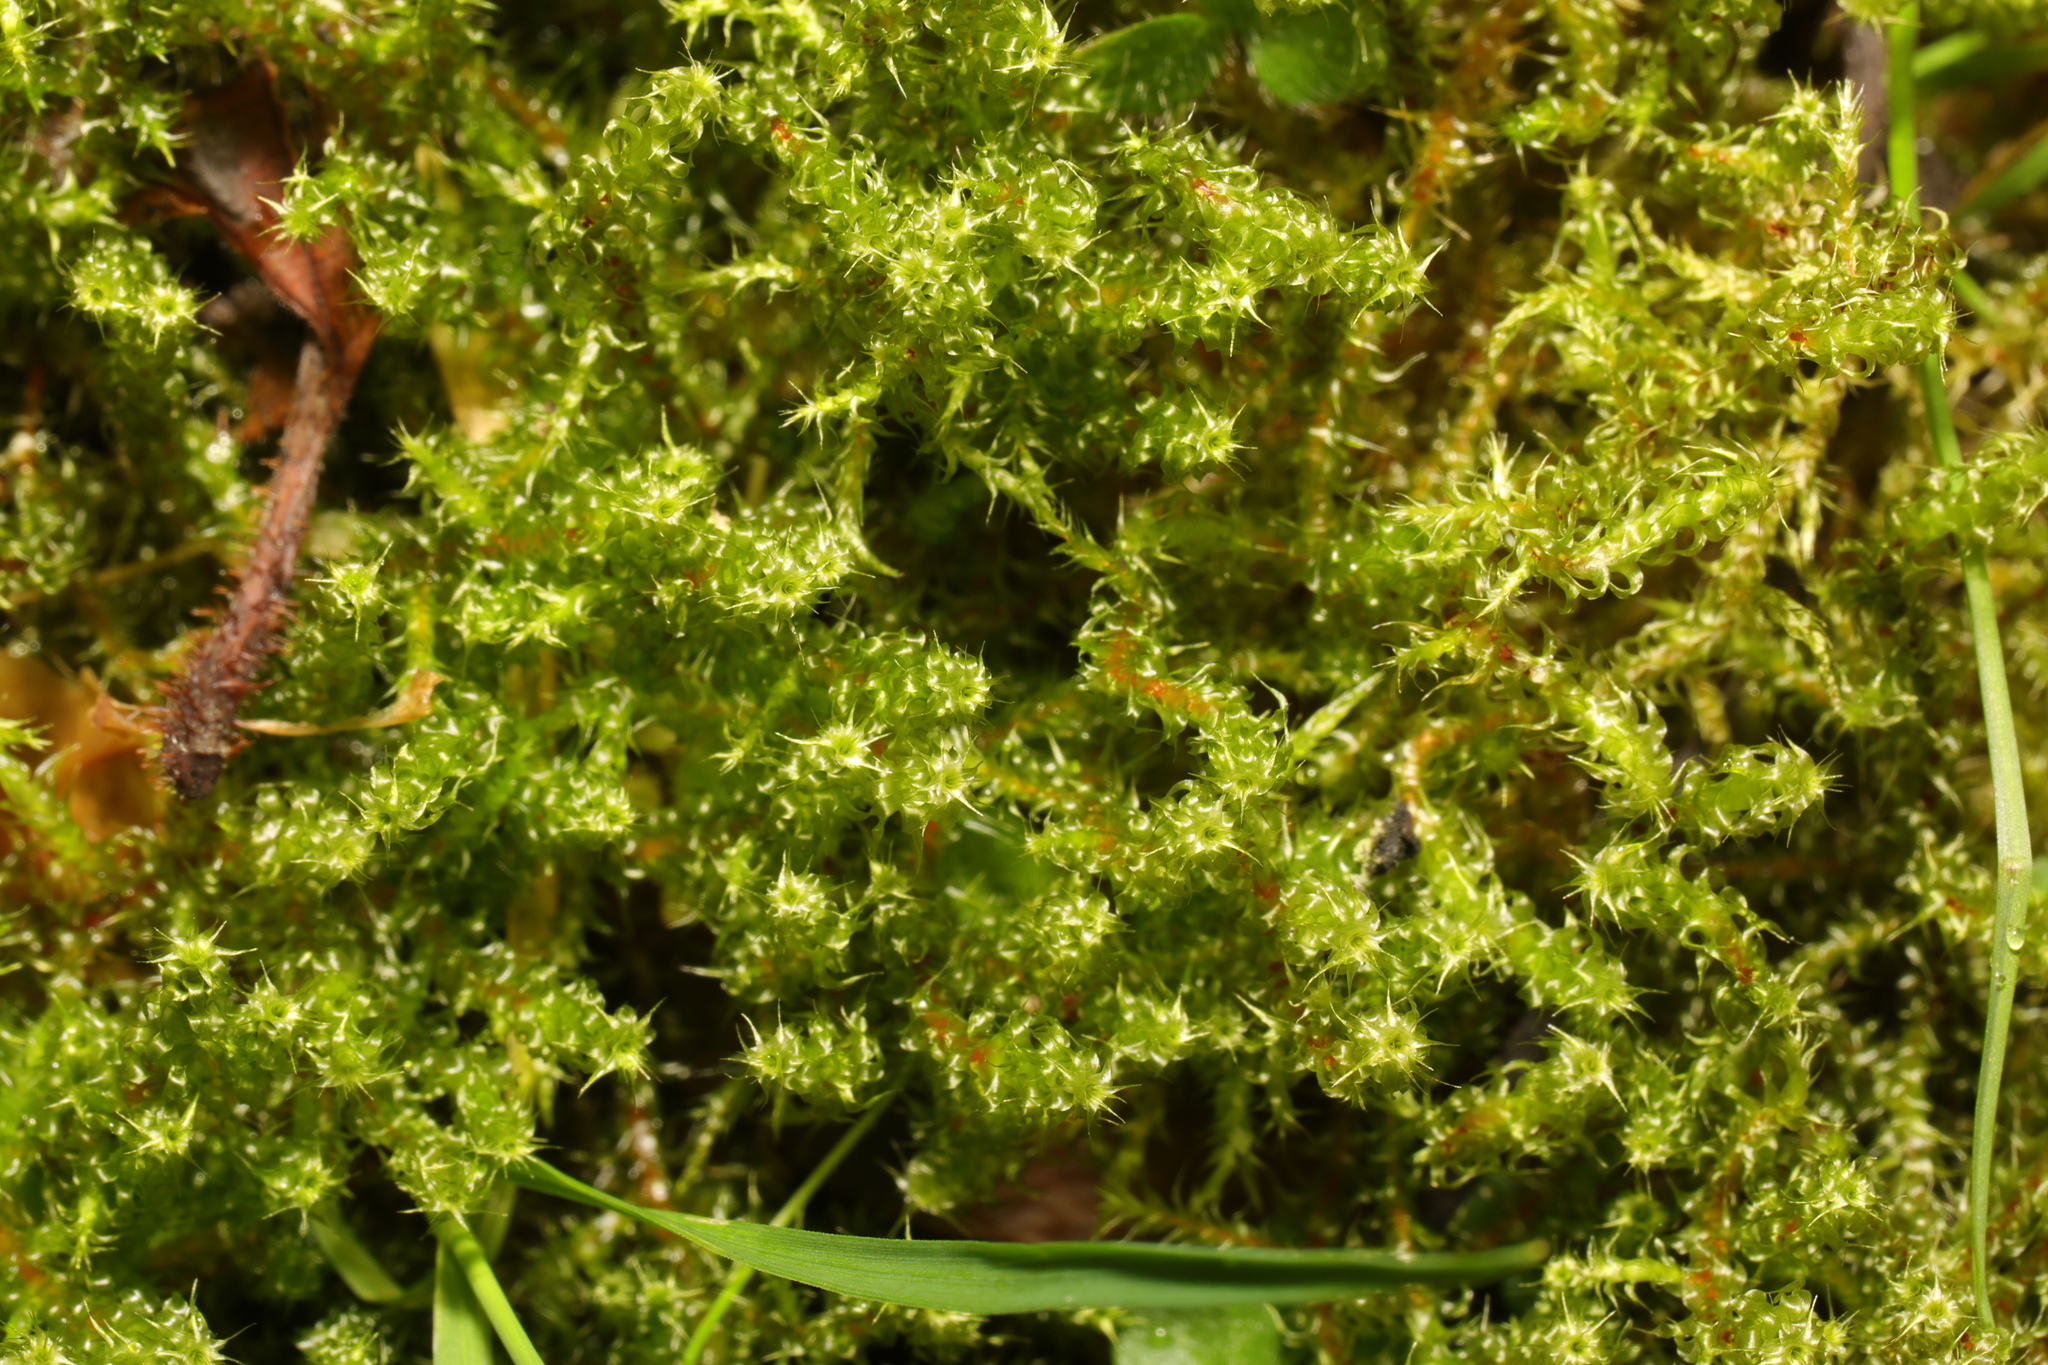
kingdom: Plantae
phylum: Bryophyta
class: Bryopsida
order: Hypnales
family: Hylocomiaceae
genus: Rhytidiadelphus
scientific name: Rhytidiadelphus squarrosus
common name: Springy turf-moss
